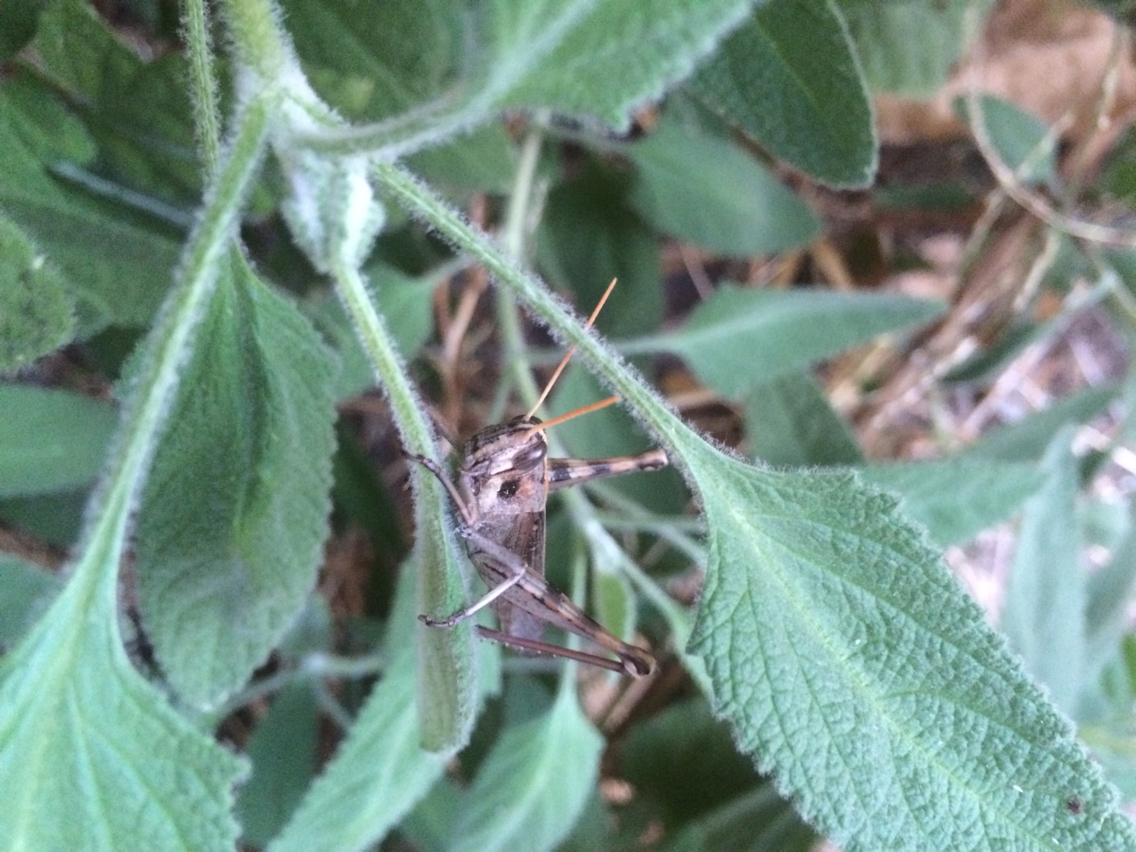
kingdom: Animalia
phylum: Arthropoda
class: Insecta
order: Orthoptera
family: Acrididae
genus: Schistocerca
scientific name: Schistocerca nitens
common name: Vagrant grasshopper
